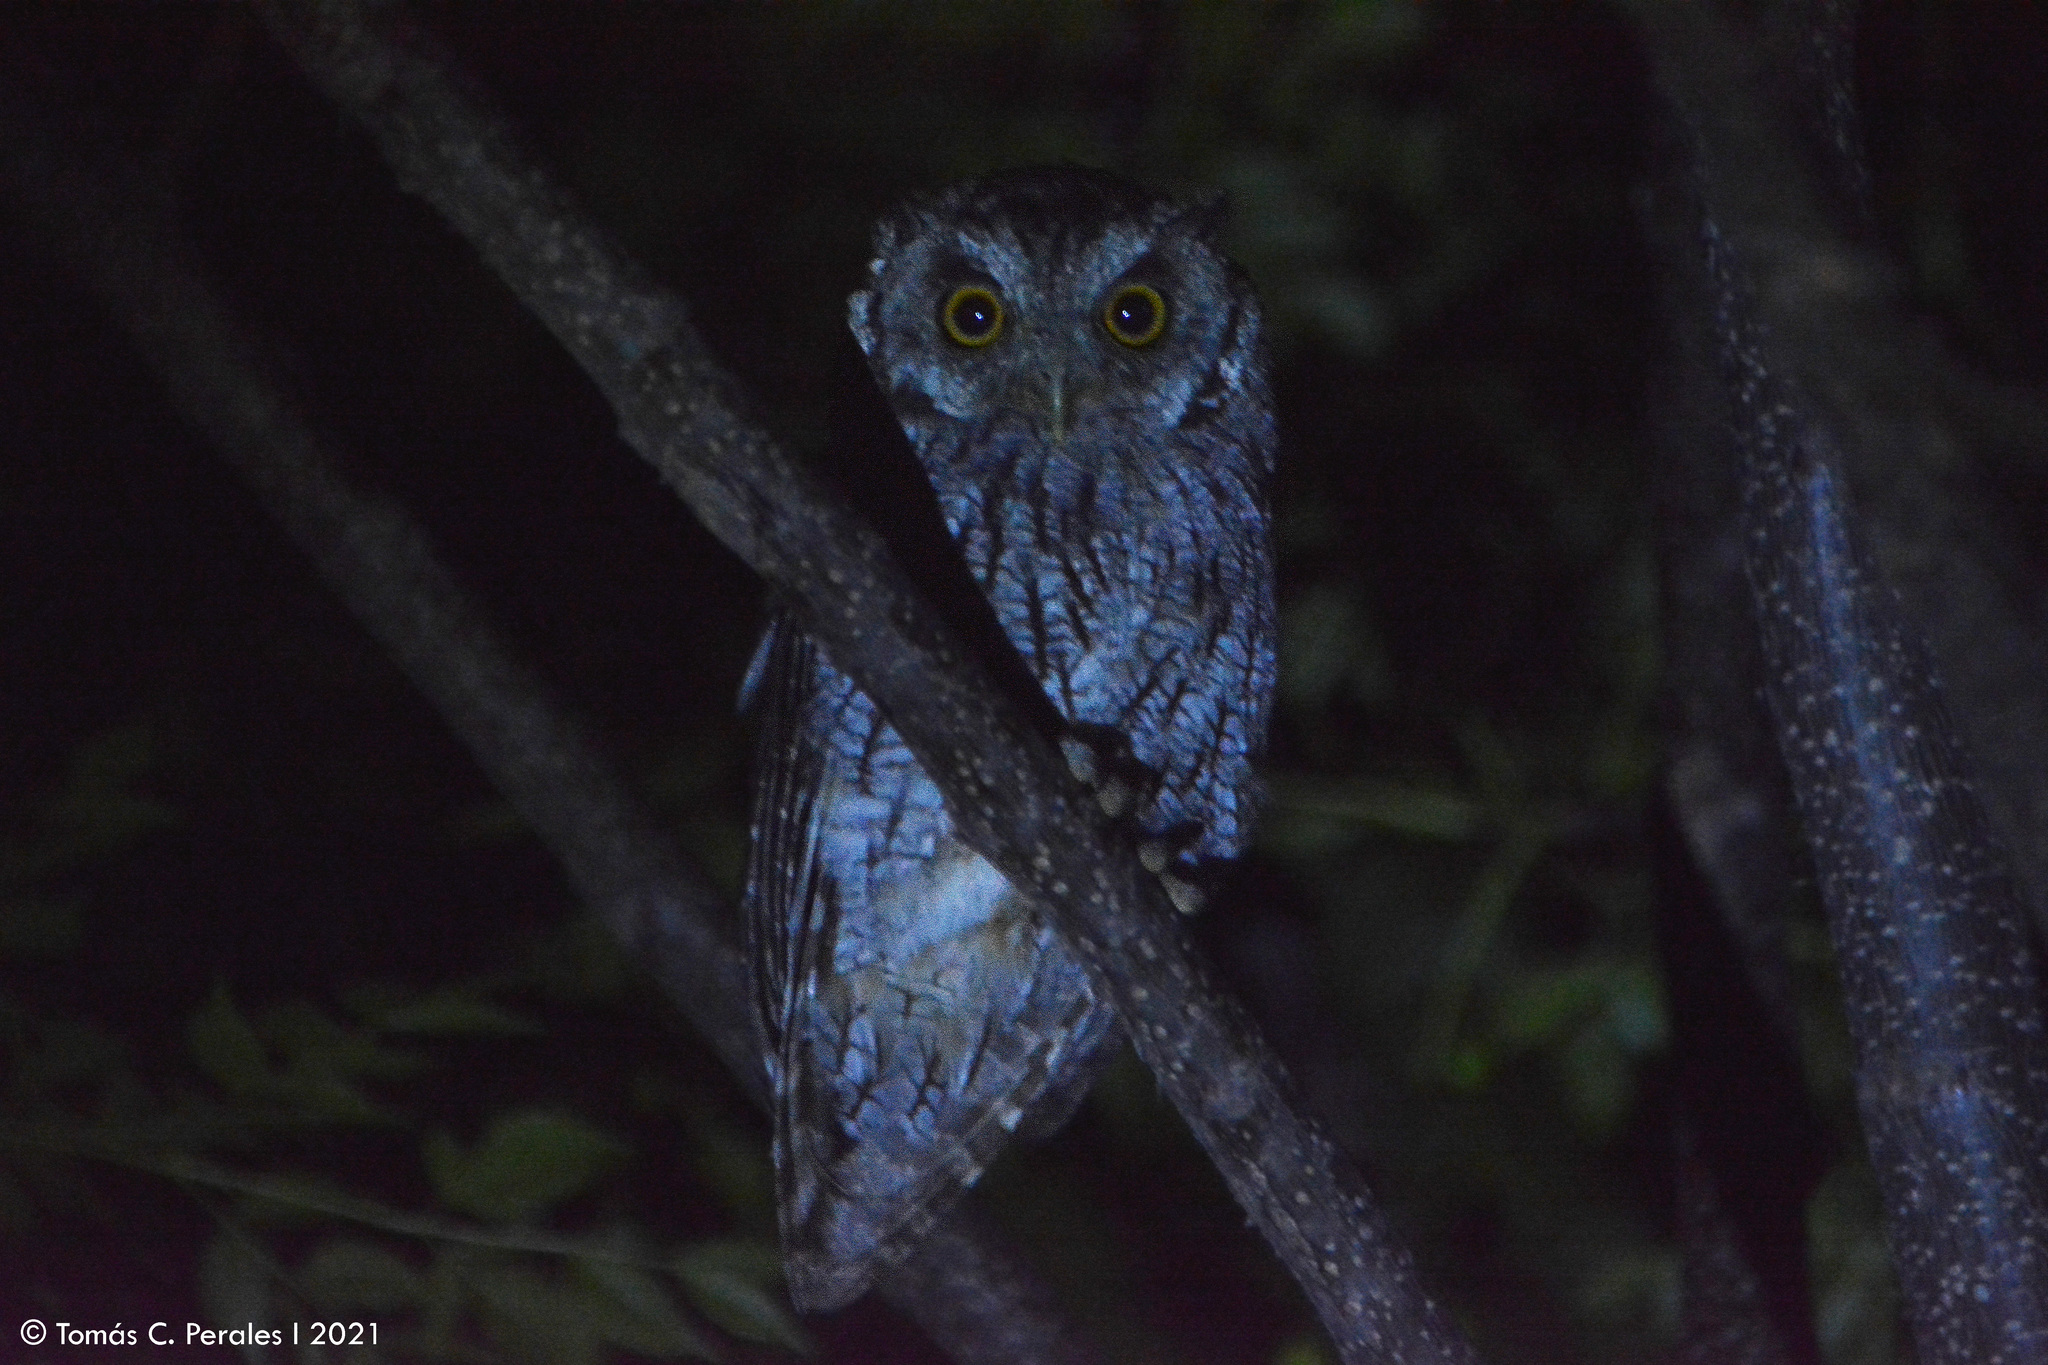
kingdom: Animalia
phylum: Chordata
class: Aves
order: Strigiformes
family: Strigidae
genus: Megascops
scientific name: Megascops choliba
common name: Tropical screech-owl
